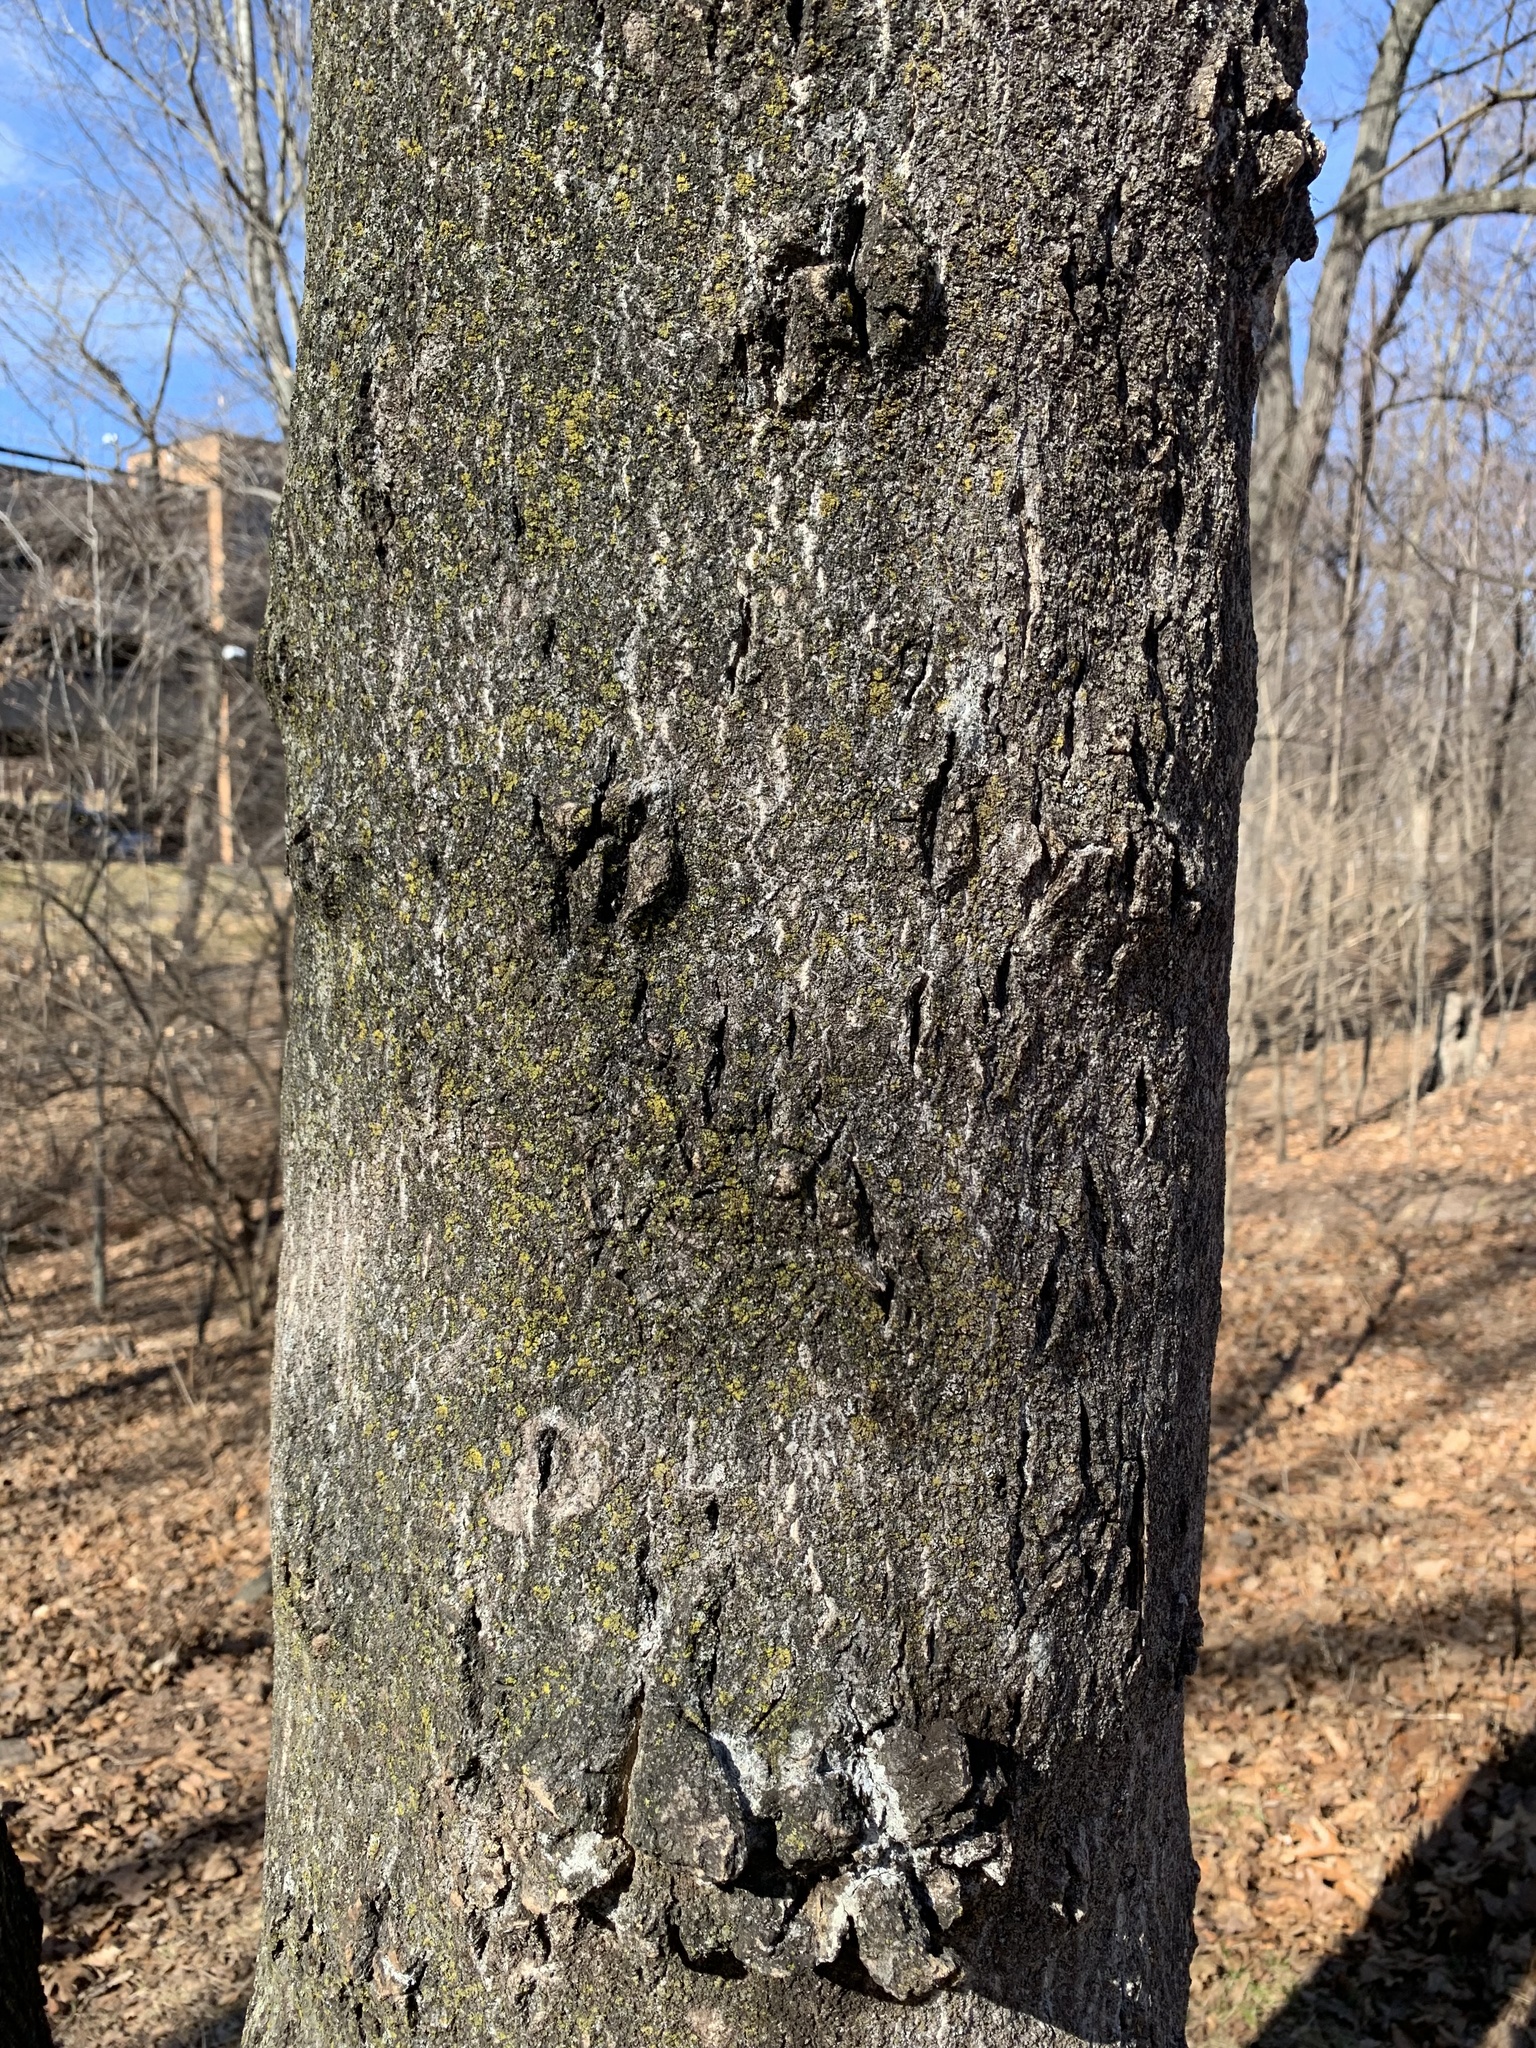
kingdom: Plantae
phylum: Tracheophyta
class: Magnoliopsida
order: Sapindales
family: Simaroubaceae
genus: Ailanthus
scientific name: Ailanthus altissima
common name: Tree-of-heaven
